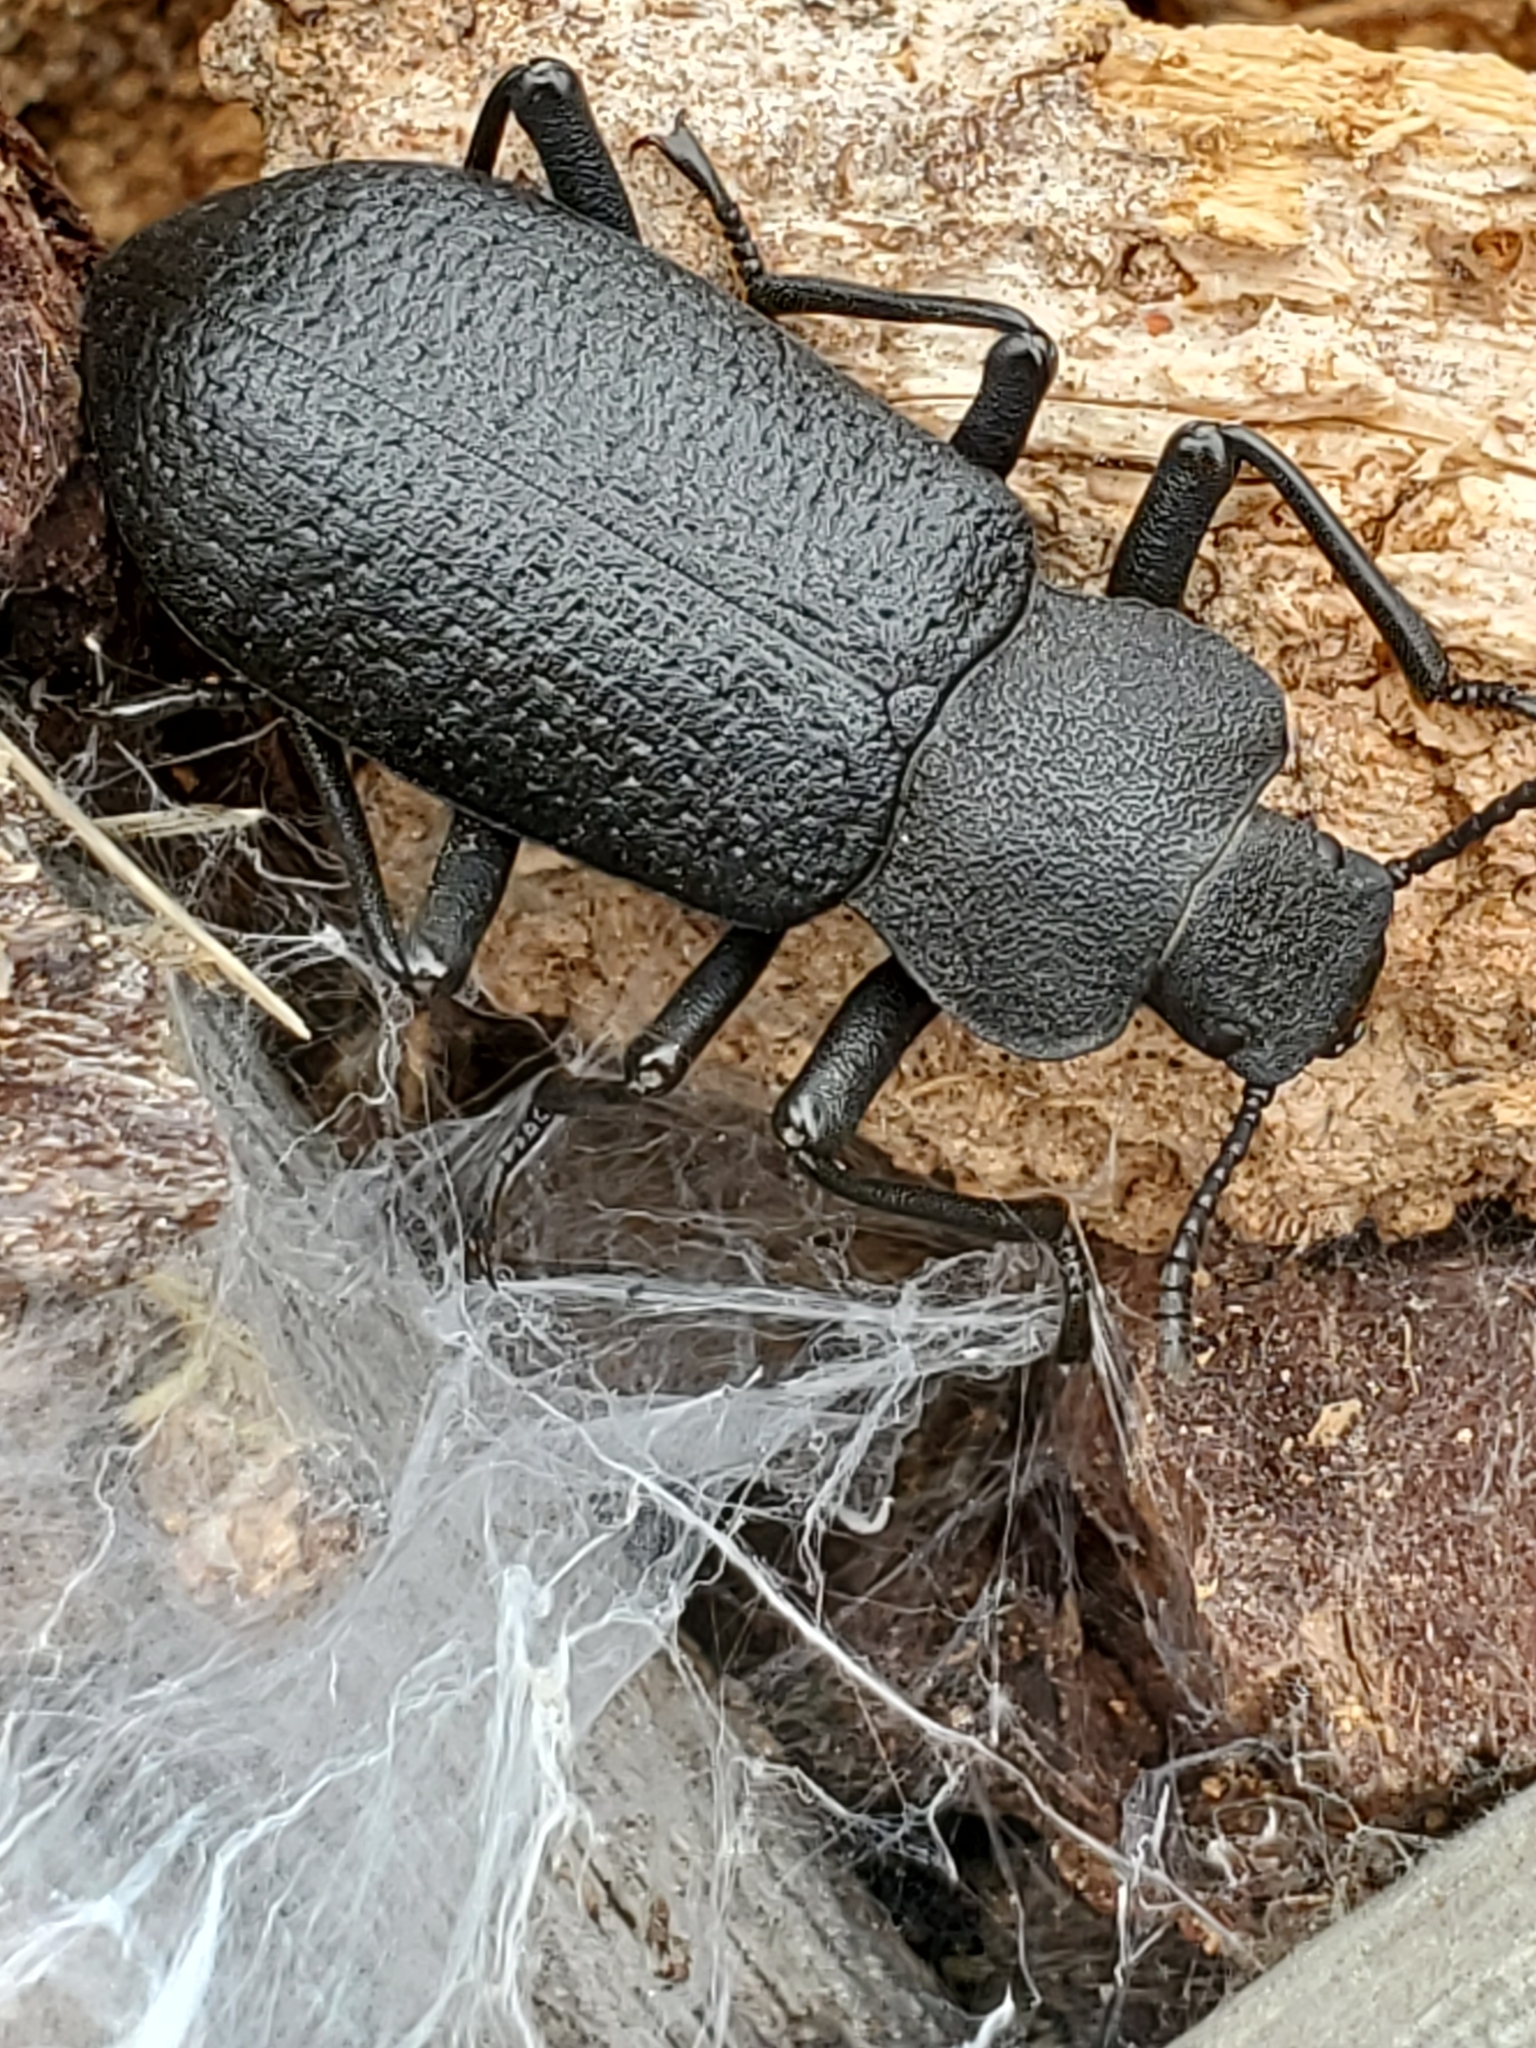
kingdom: Animalia
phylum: Arthropoda
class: Insecta
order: Coleoptera
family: Tenebrionidae
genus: Iphthiminus
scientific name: Iphthiminus serratus
